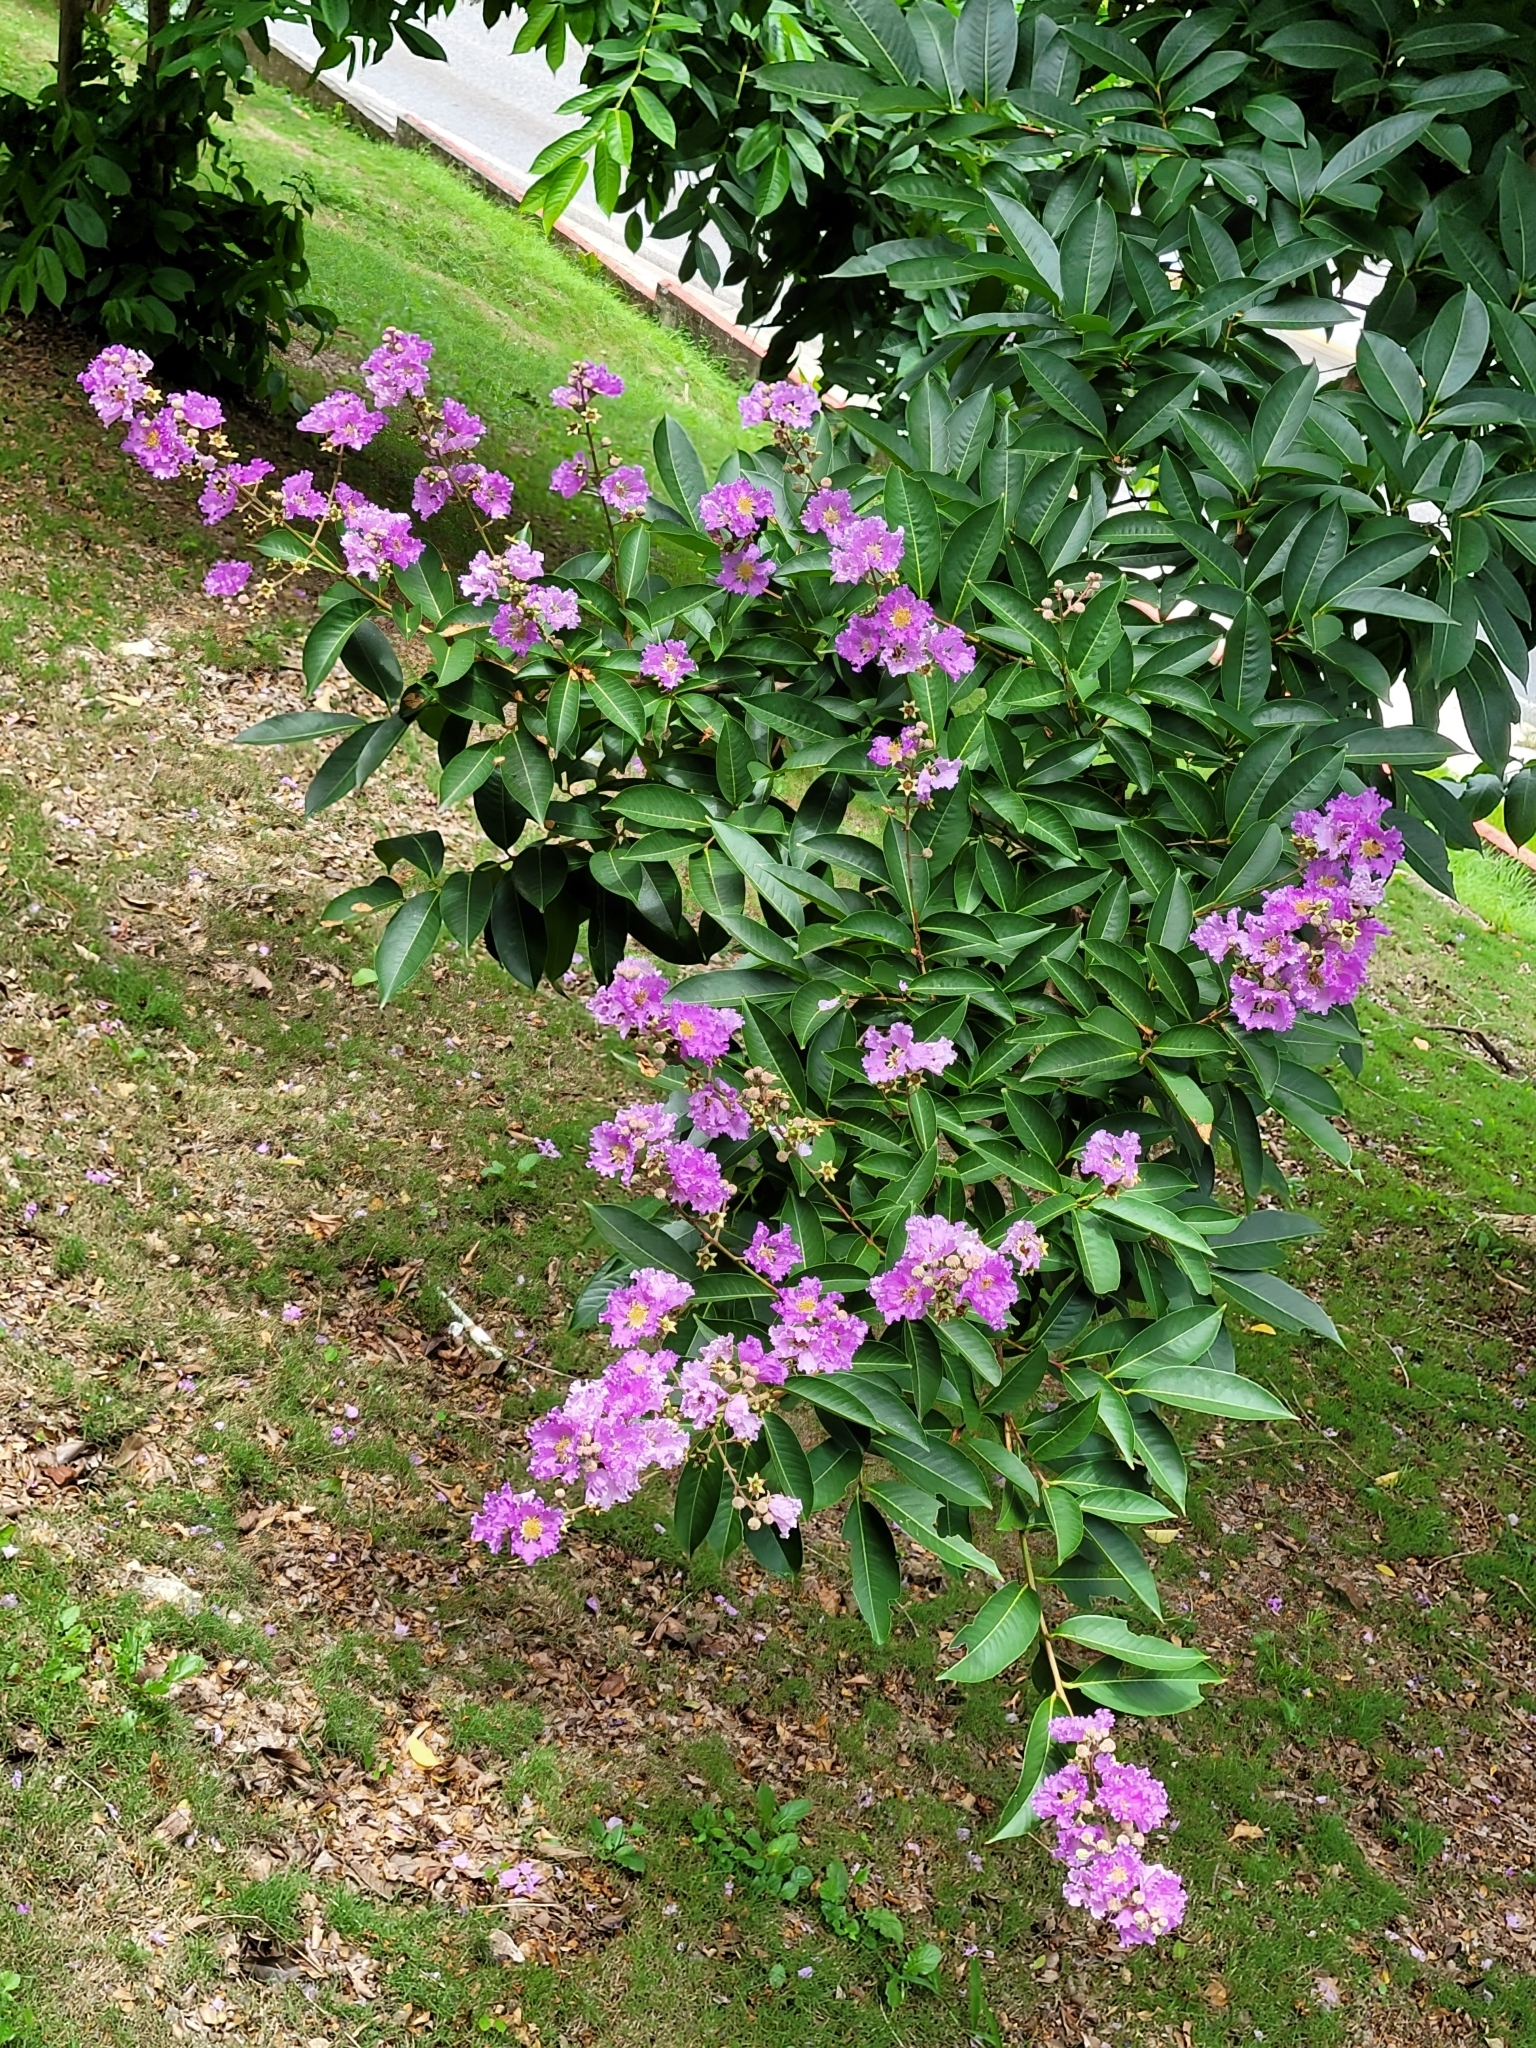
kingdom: Plantae
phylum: Tracheophyta
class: Magnoliopsida
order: Myrtales
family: Lythraceae
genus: Lagerstroemia
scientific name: Lagerstroemia speciosa
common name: Queen's crape-myrtle
